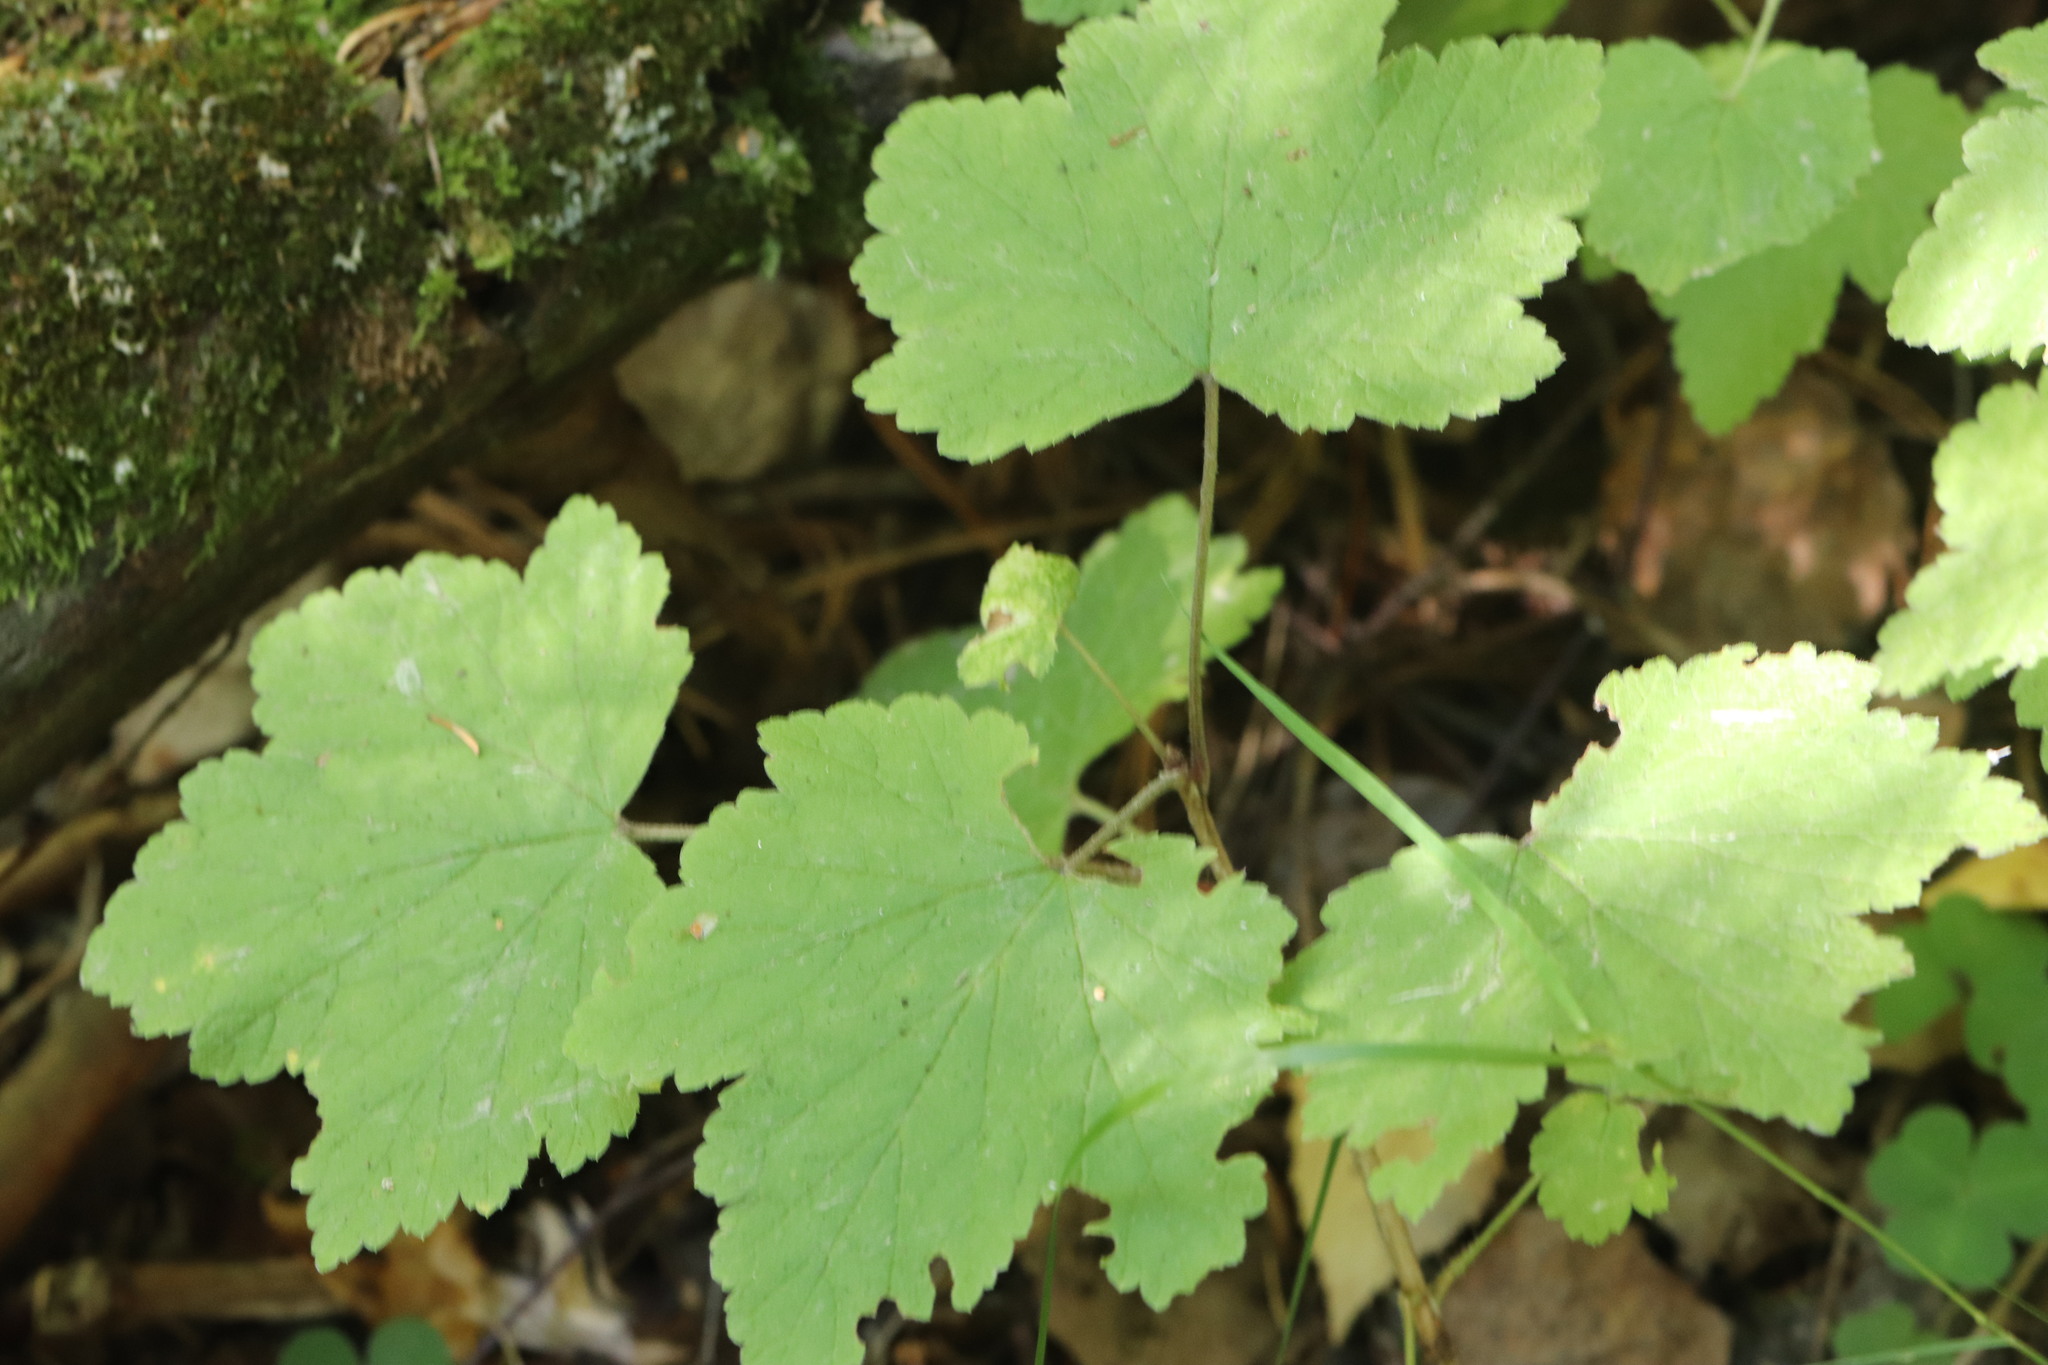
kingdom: Plantae
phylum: Tracheophyta
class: Magnoliopsida
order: Saxifragales
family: Grossulariaceae
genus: Ribes
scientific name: Ribes spicatum
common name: Downy currant
